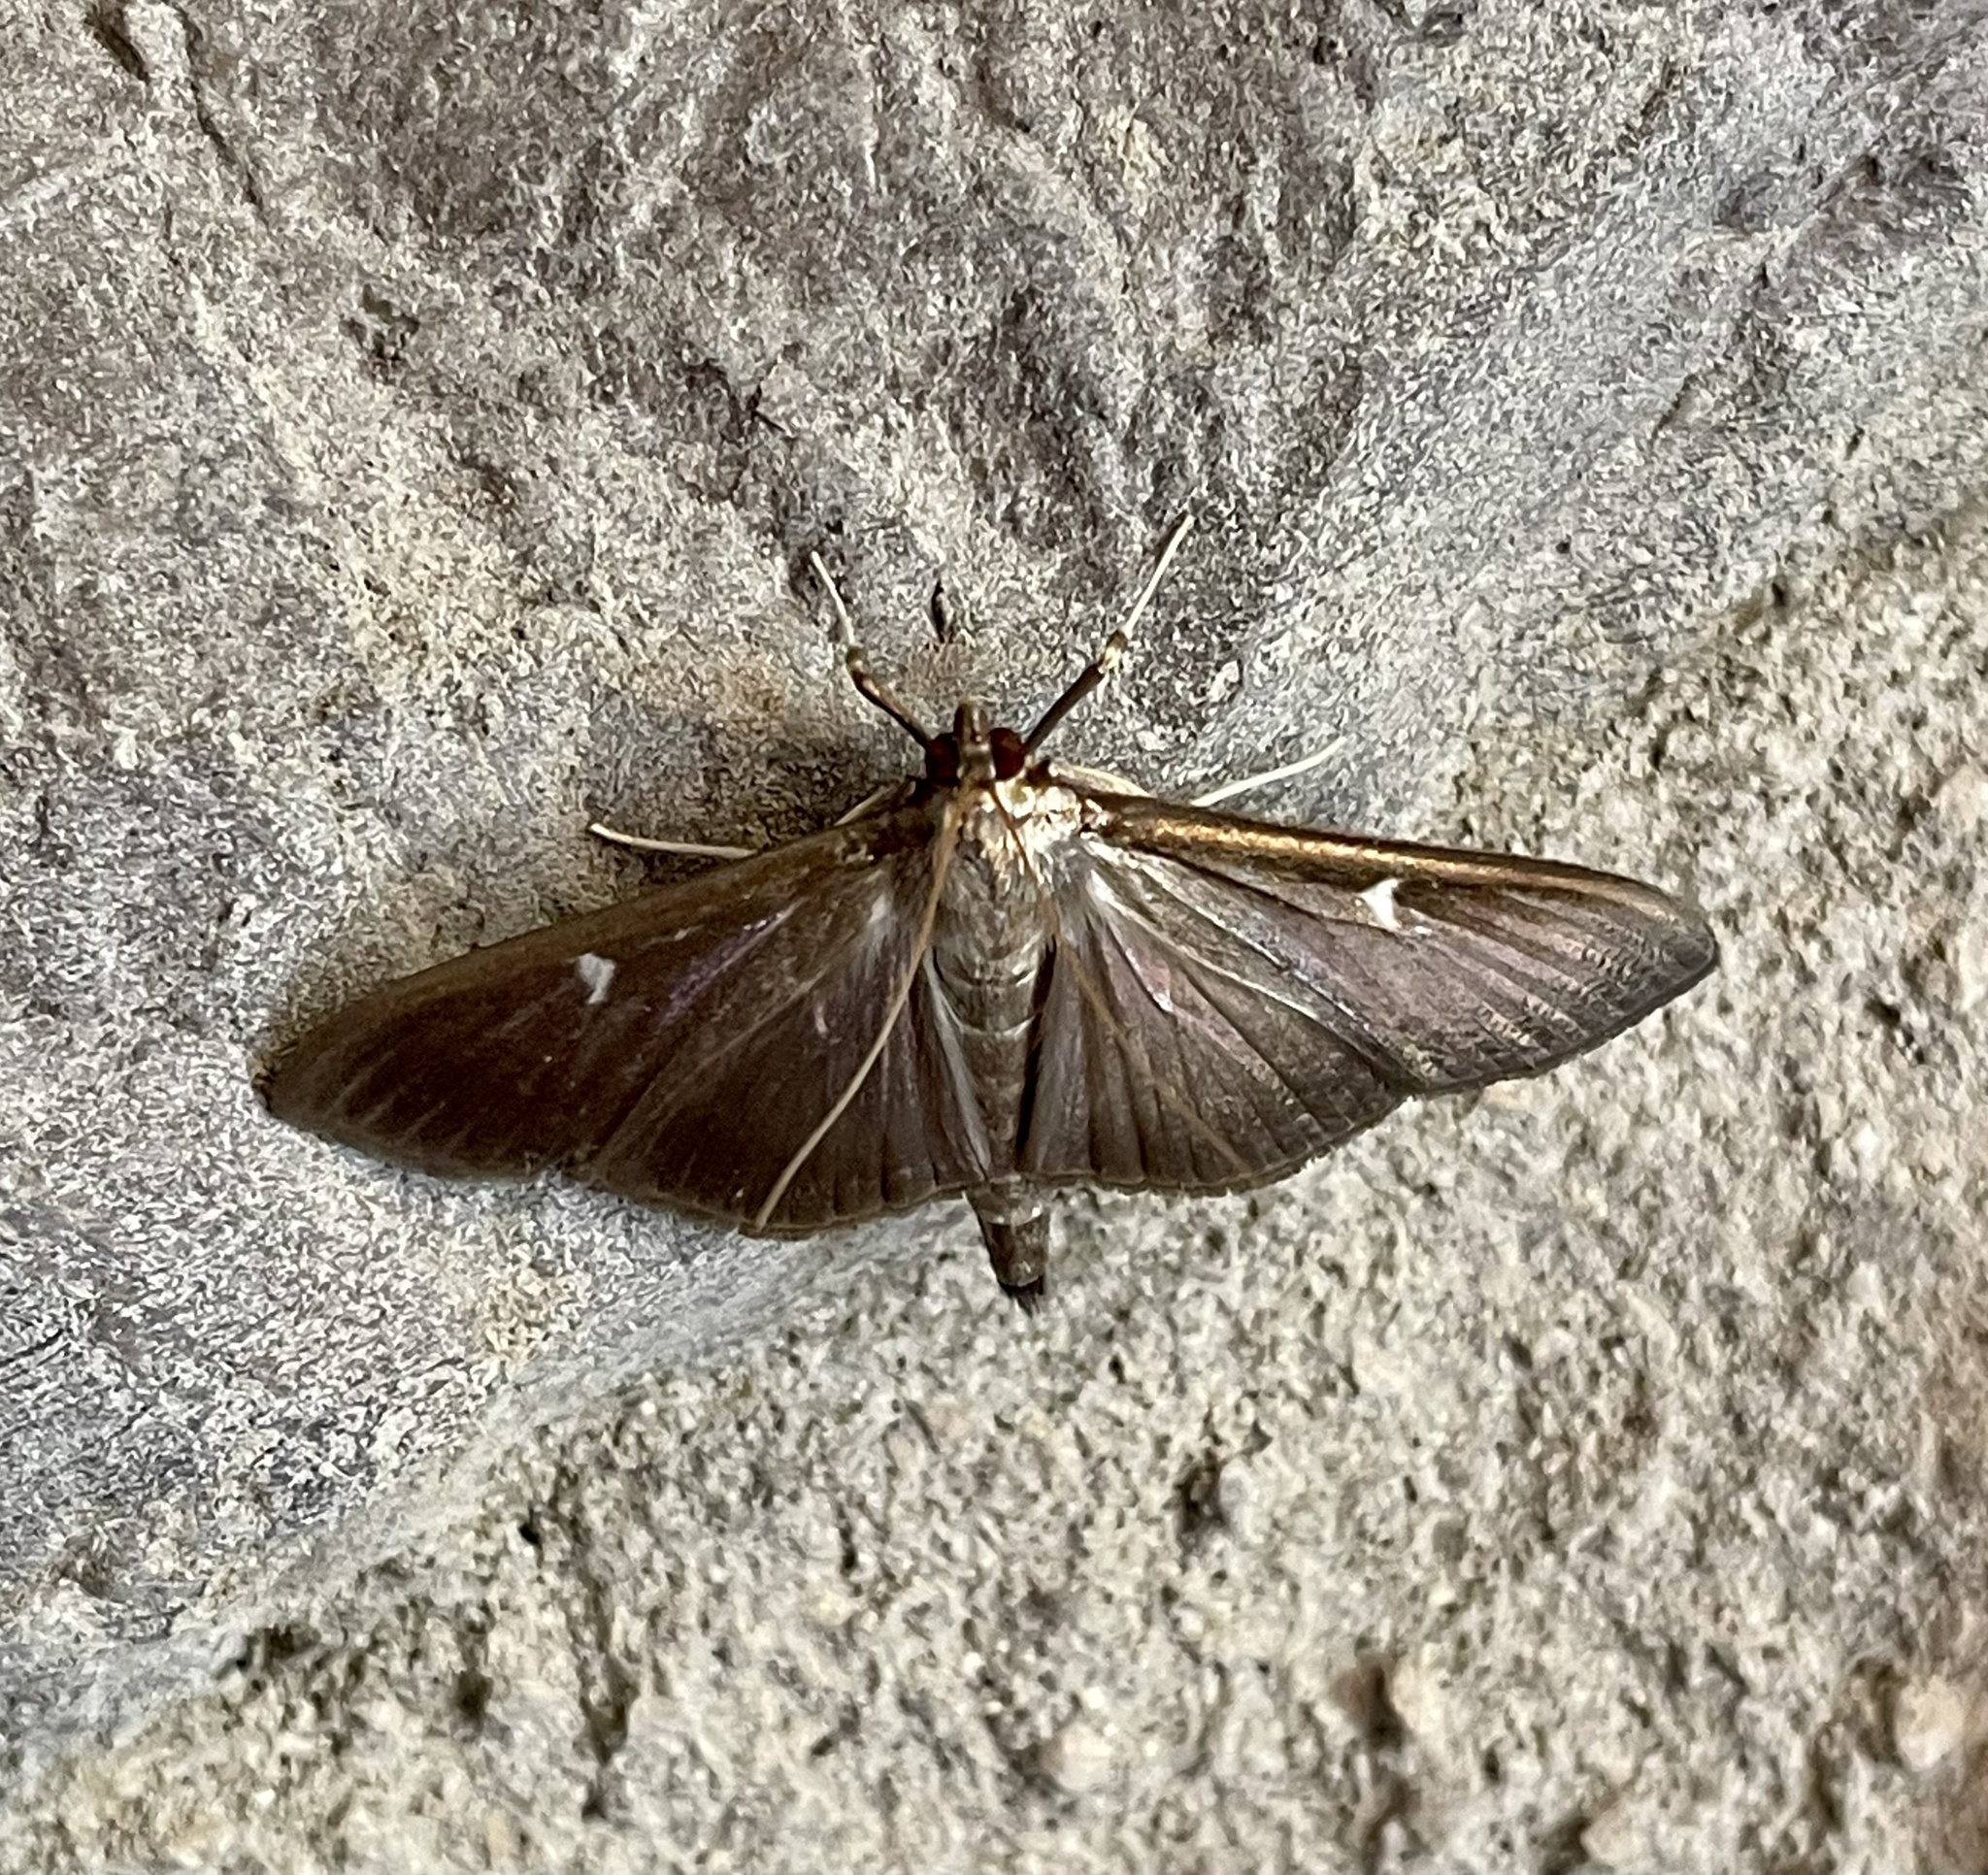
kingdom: Animalia
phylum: Arthropoda
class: Insecta
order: Lepidoptera
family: Crambidae
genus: Cydalima
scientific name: Cydalima perspectalis
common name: Box tree moth
